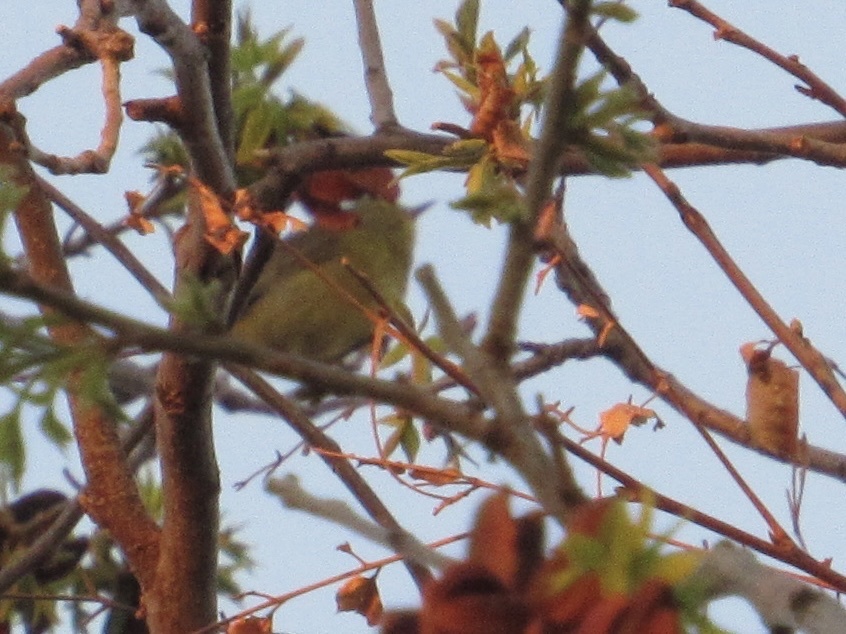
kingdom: Animalia
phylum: Chordata
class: Aves
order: Passeriformes
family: Parulidae
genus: Leiothlypis
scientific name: Leiothlypis celata
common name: Orange-crowned warbler
